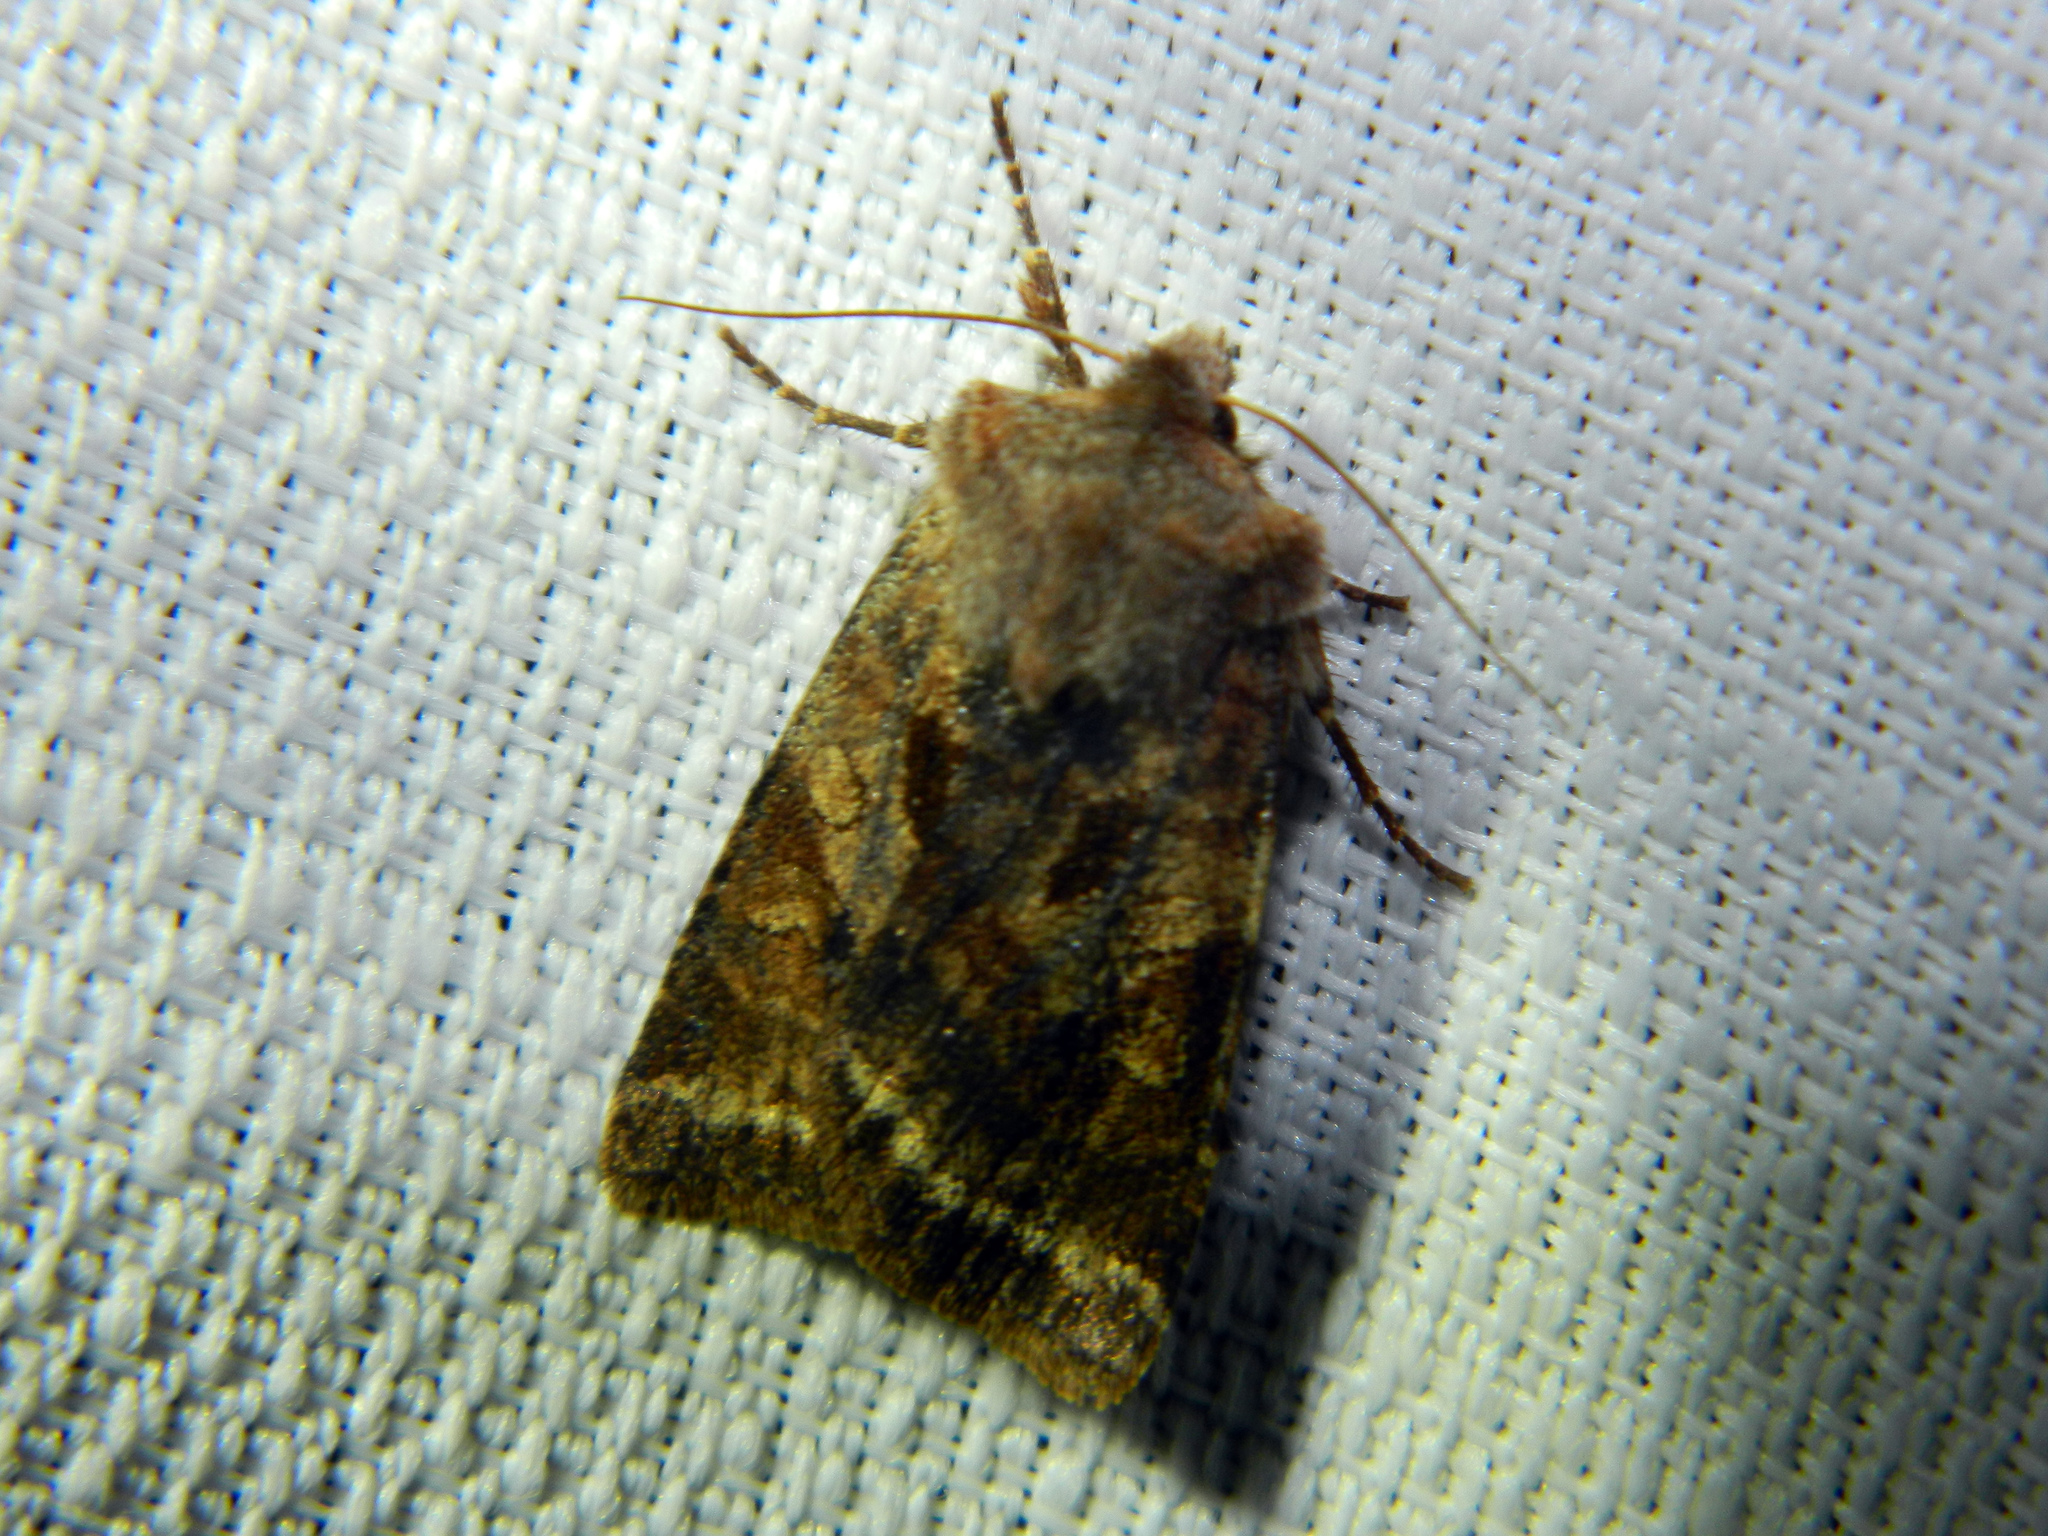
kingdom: Animalia
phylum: Arthropoda
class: Insecta
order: Lepidoptera
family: Noctuidae
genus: Cerastis
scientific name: Cerastis salicarum
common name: Willow dart
